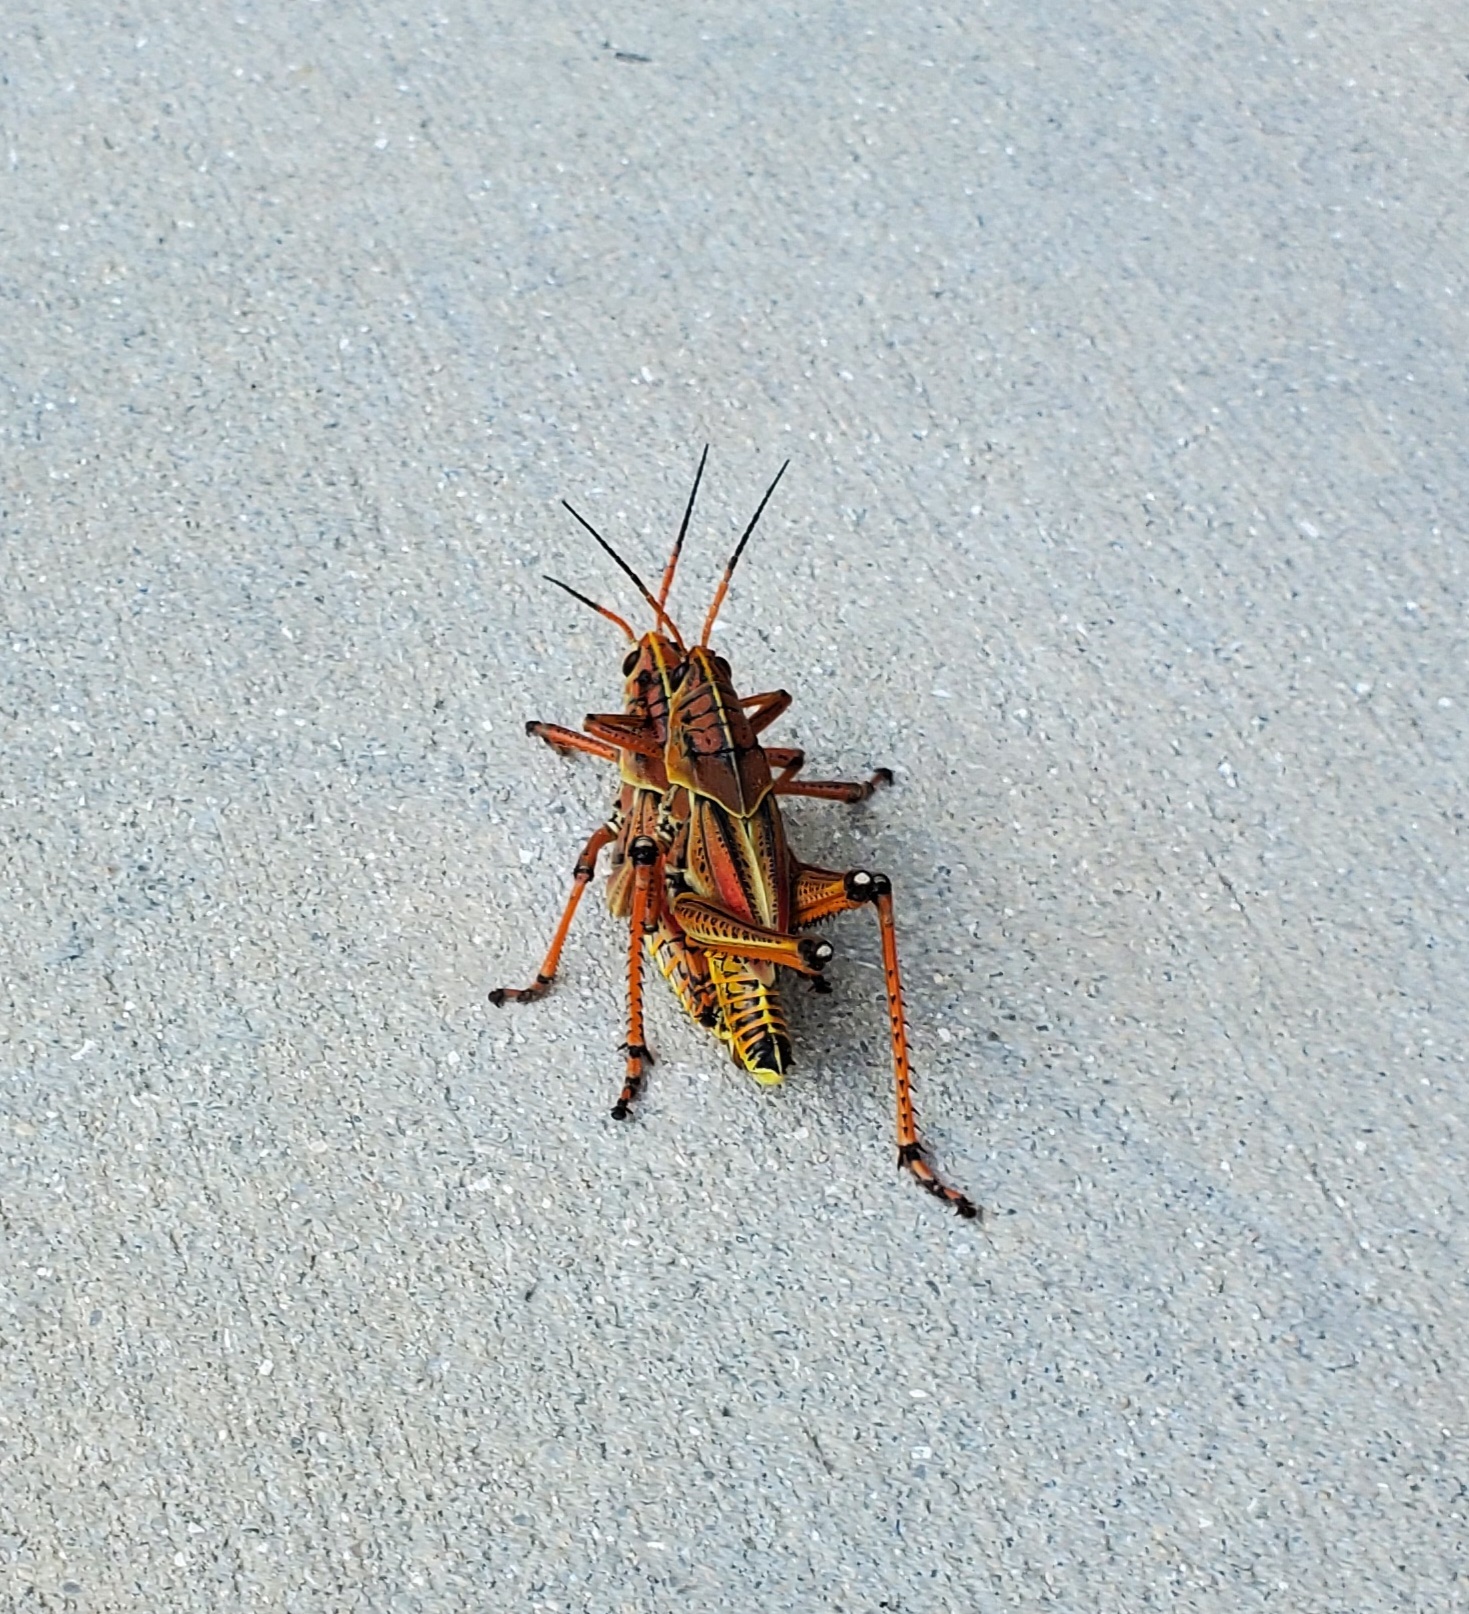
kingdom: Animalia
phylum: Arthropoda
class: Insecta
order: Orthoptera
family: Romaleidae
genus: Romalea
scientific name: Romalea microptera
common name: Eastern lubber grasshopper
